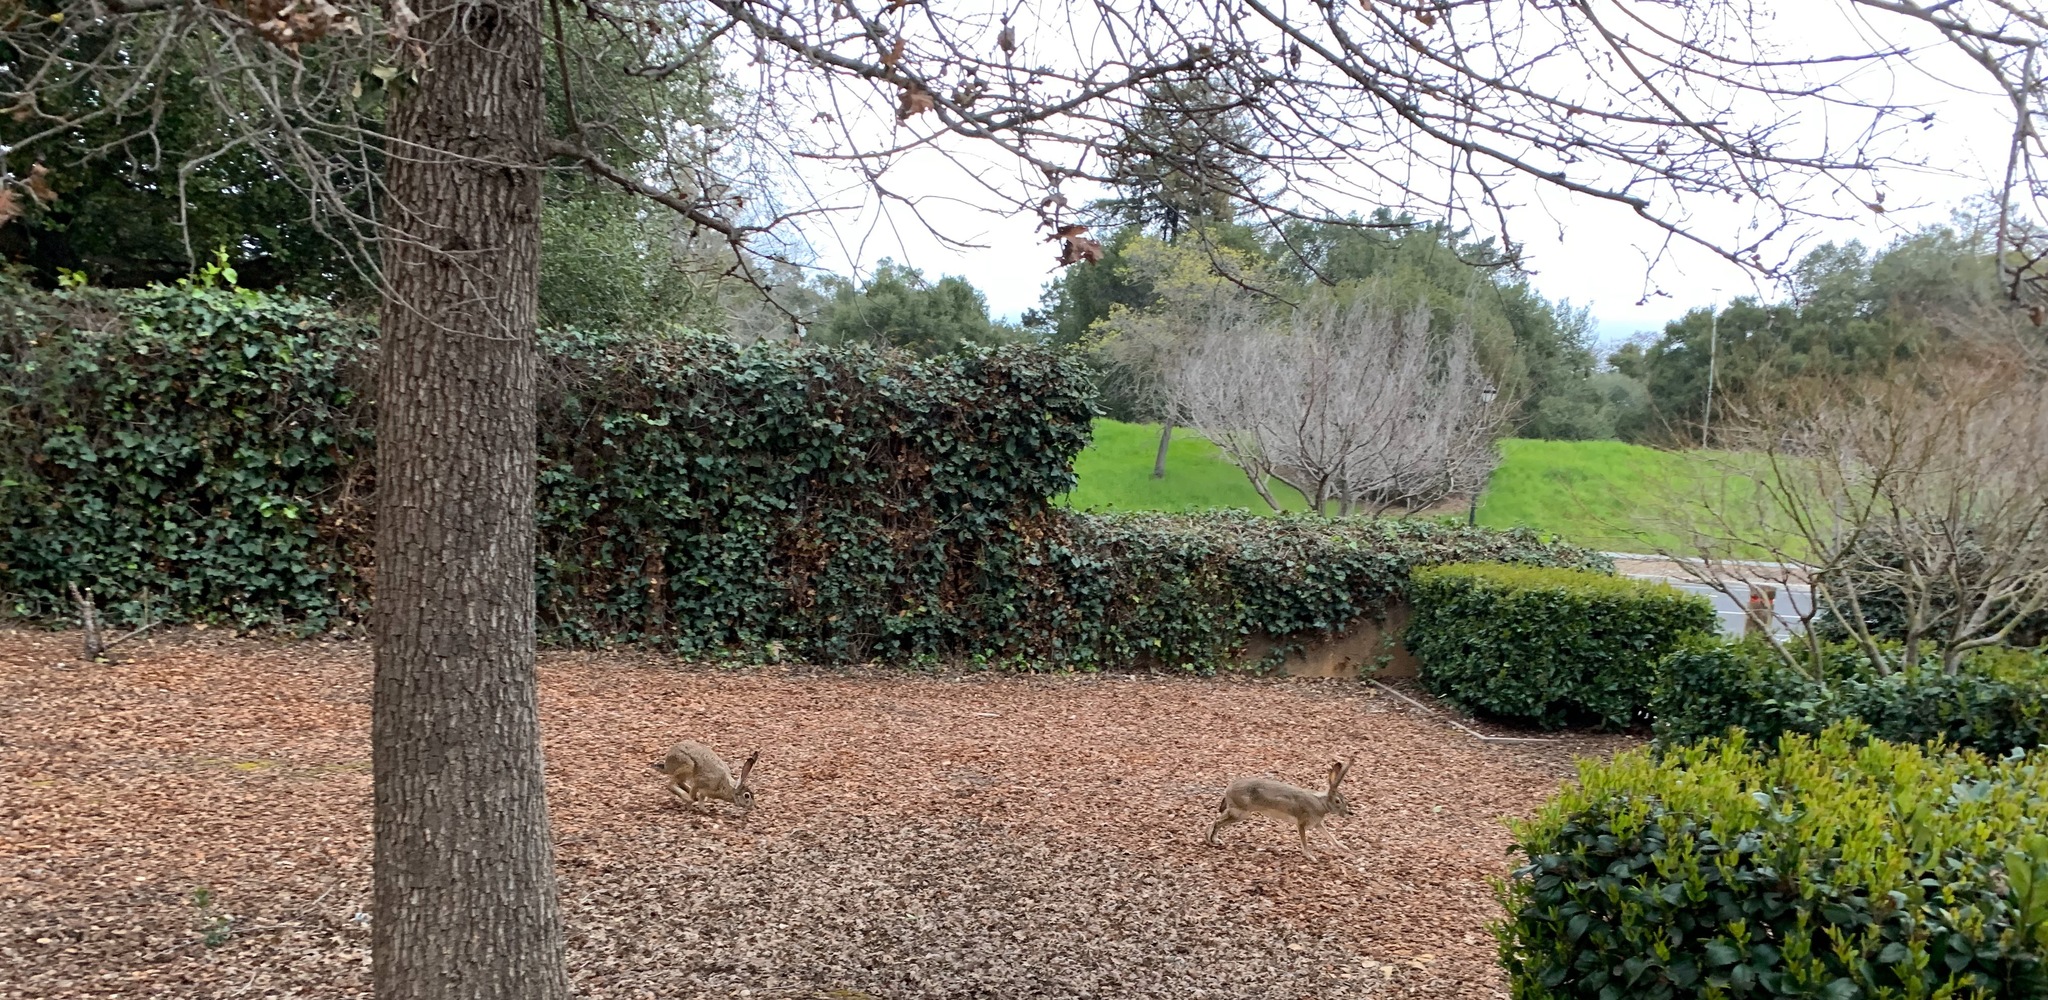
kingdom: Animalia
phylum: Chordata
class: Mammalia
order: Lagomorpha
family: Leporidae
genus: Lepus
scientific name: Lepus californicus
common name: Black-tailed jackrabbit
